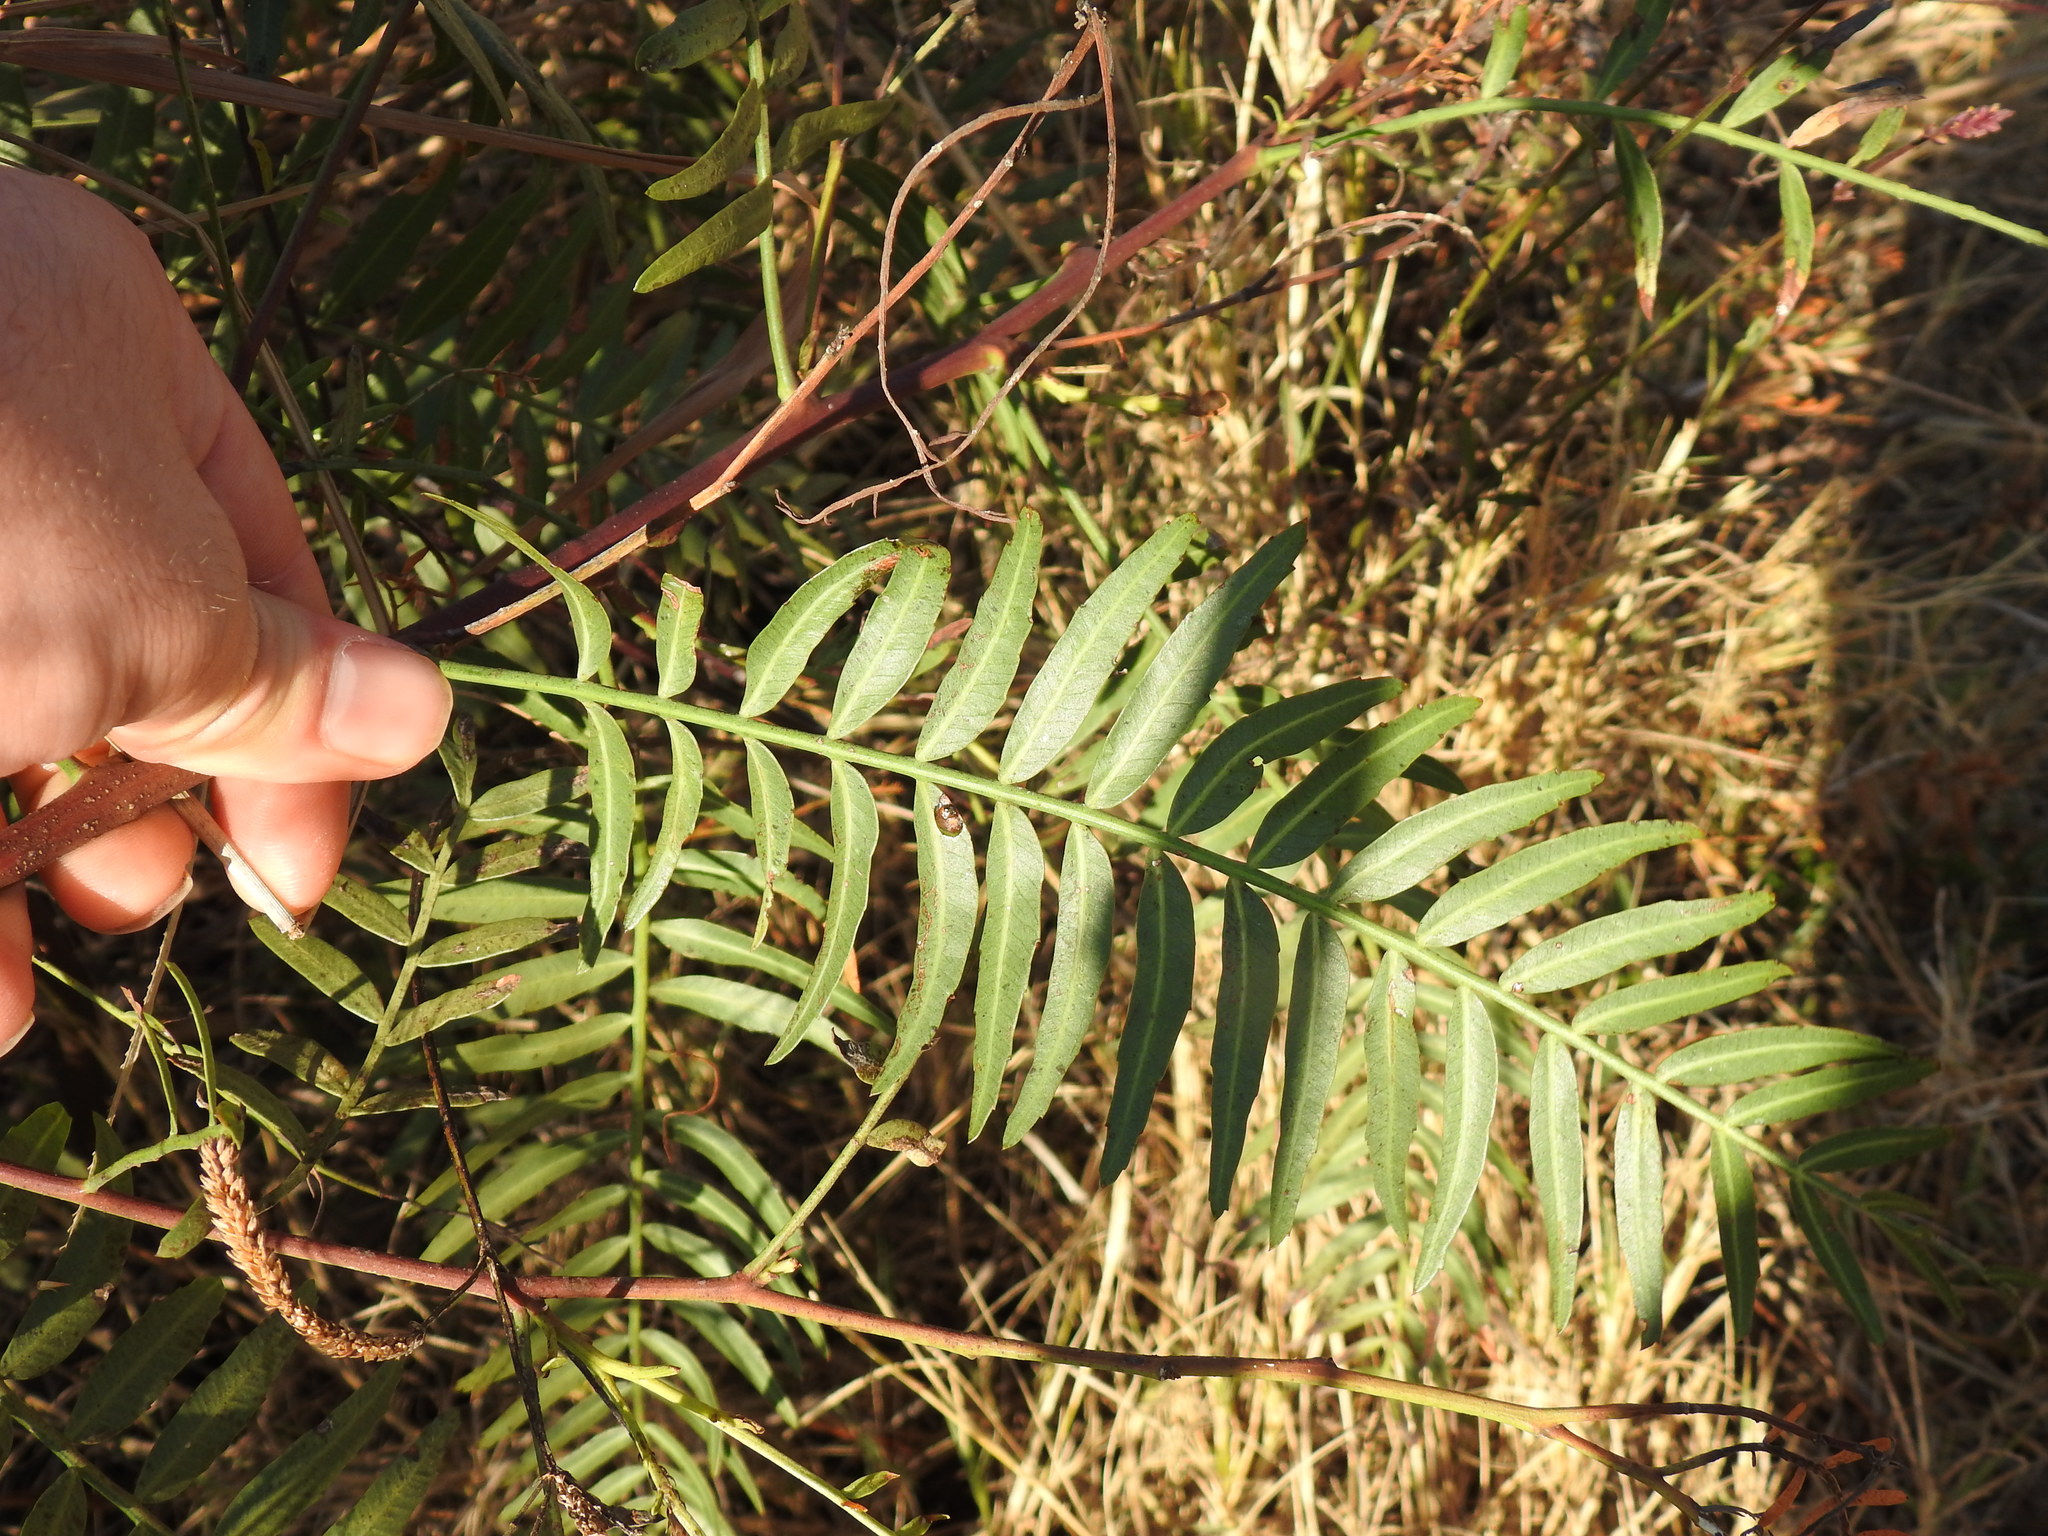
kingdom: Plantae
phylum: Tracheophyta
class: Magnoliopsida
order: Sapindales
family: Anacardiaceae
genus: Schinus
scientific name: Schinus molle
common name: Peruvian peppertree
